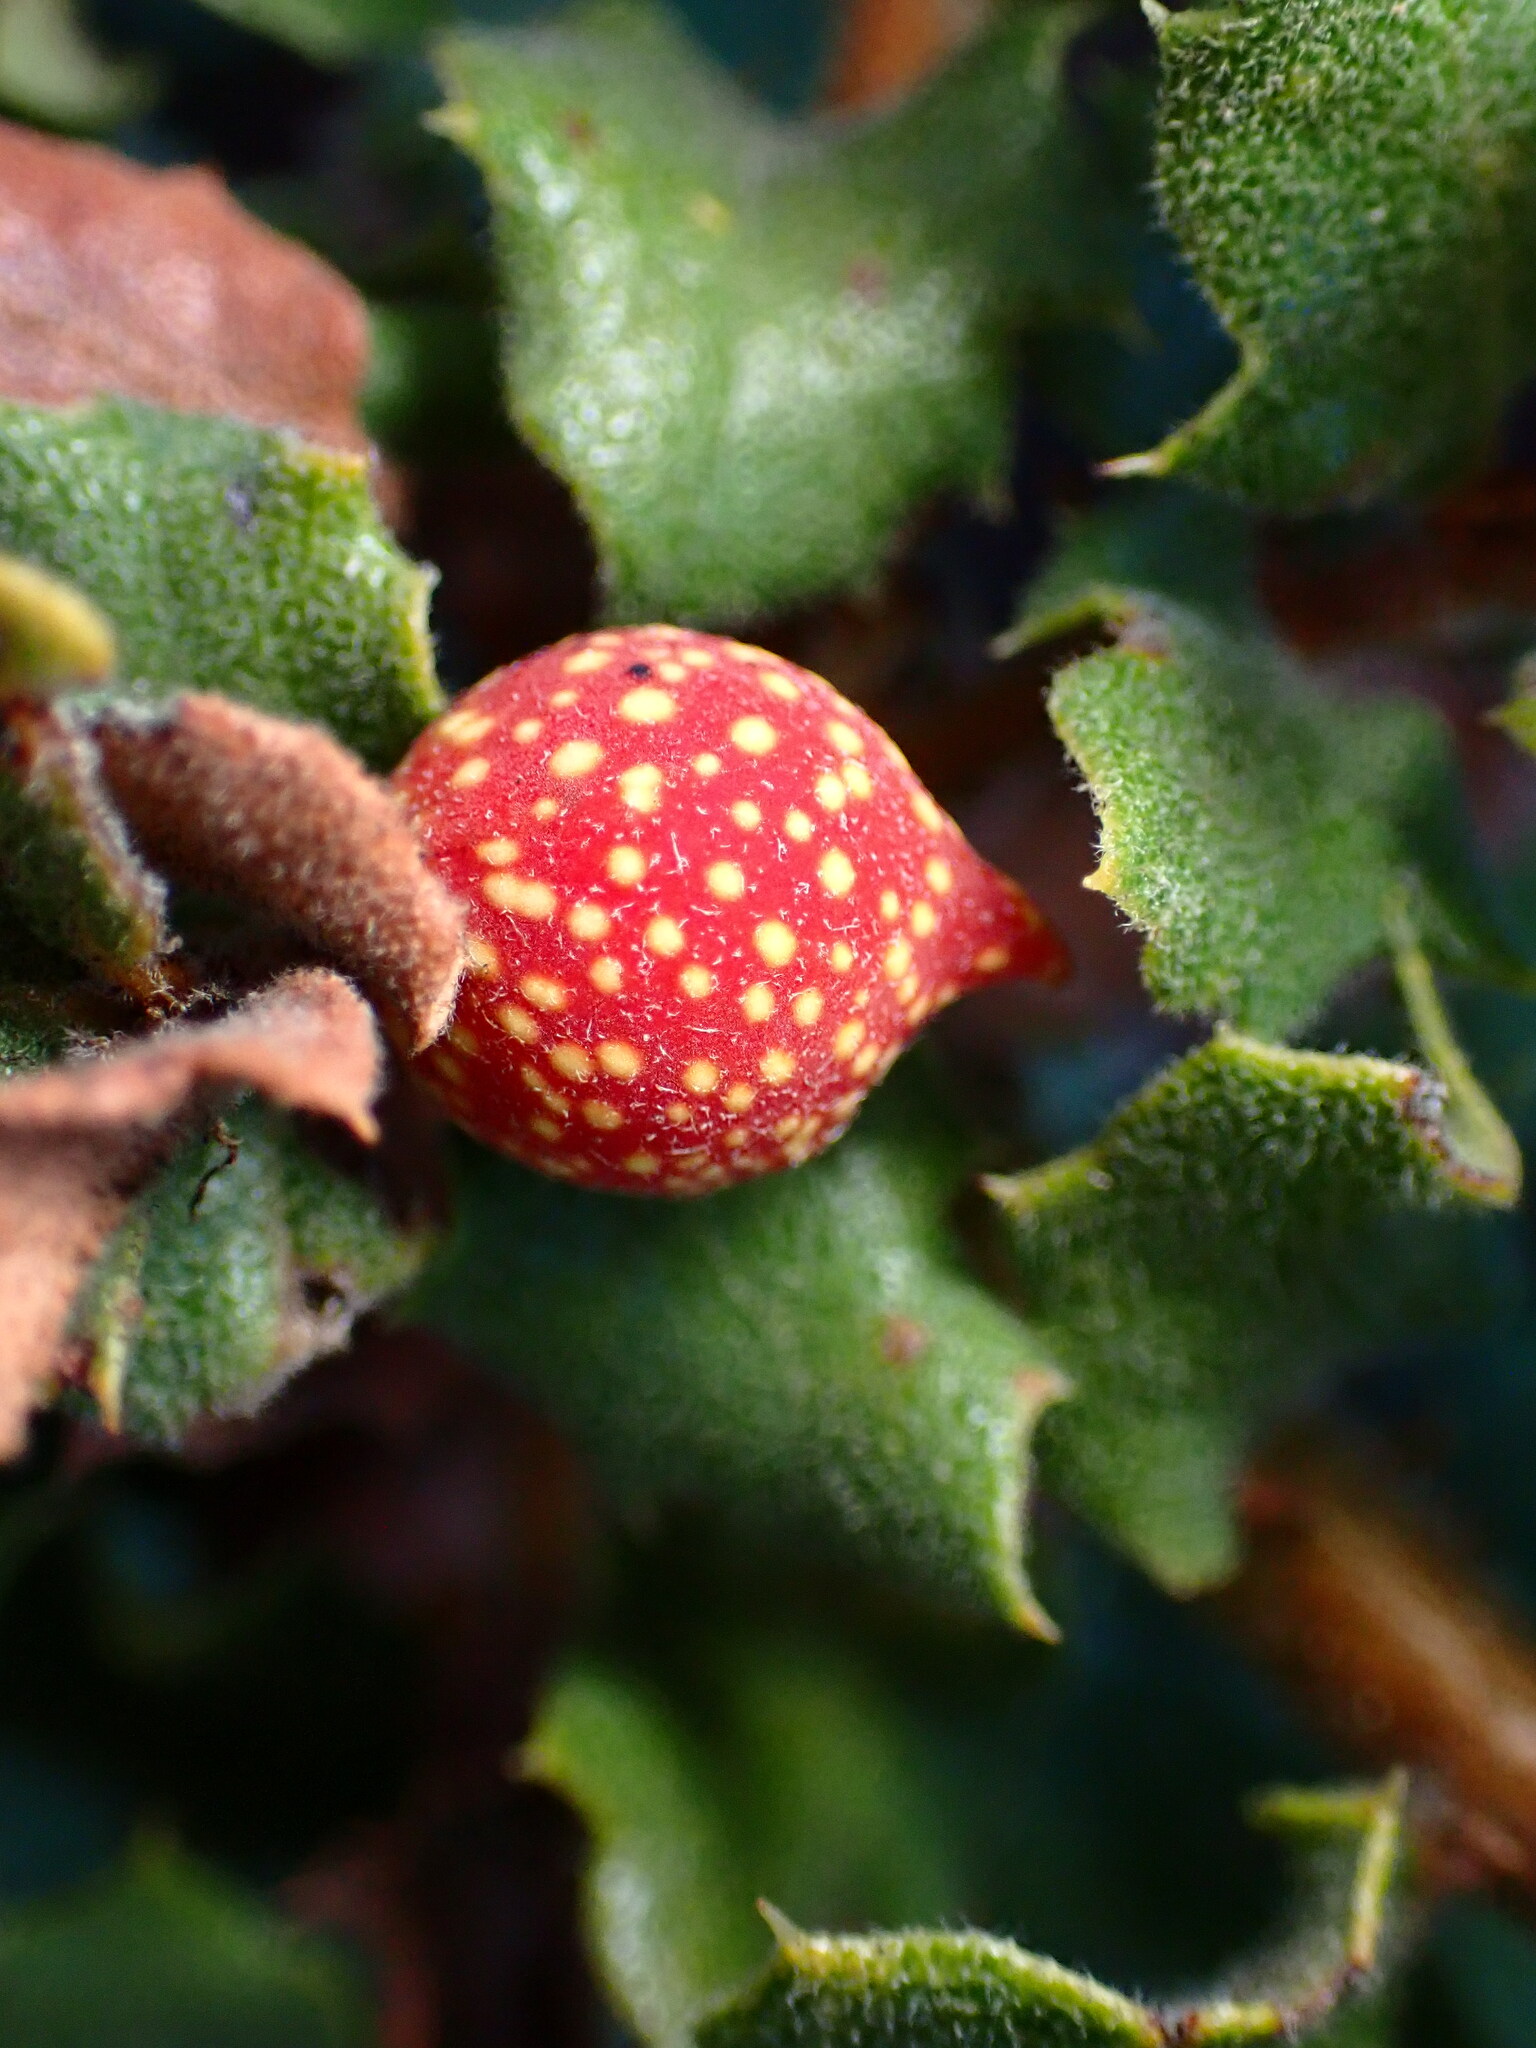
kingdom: Animalia
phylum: Arthropoda
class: Insecta
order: Hymenoptera
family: Cynipidae
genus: Burnettweldia
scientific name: Burnettweldia
